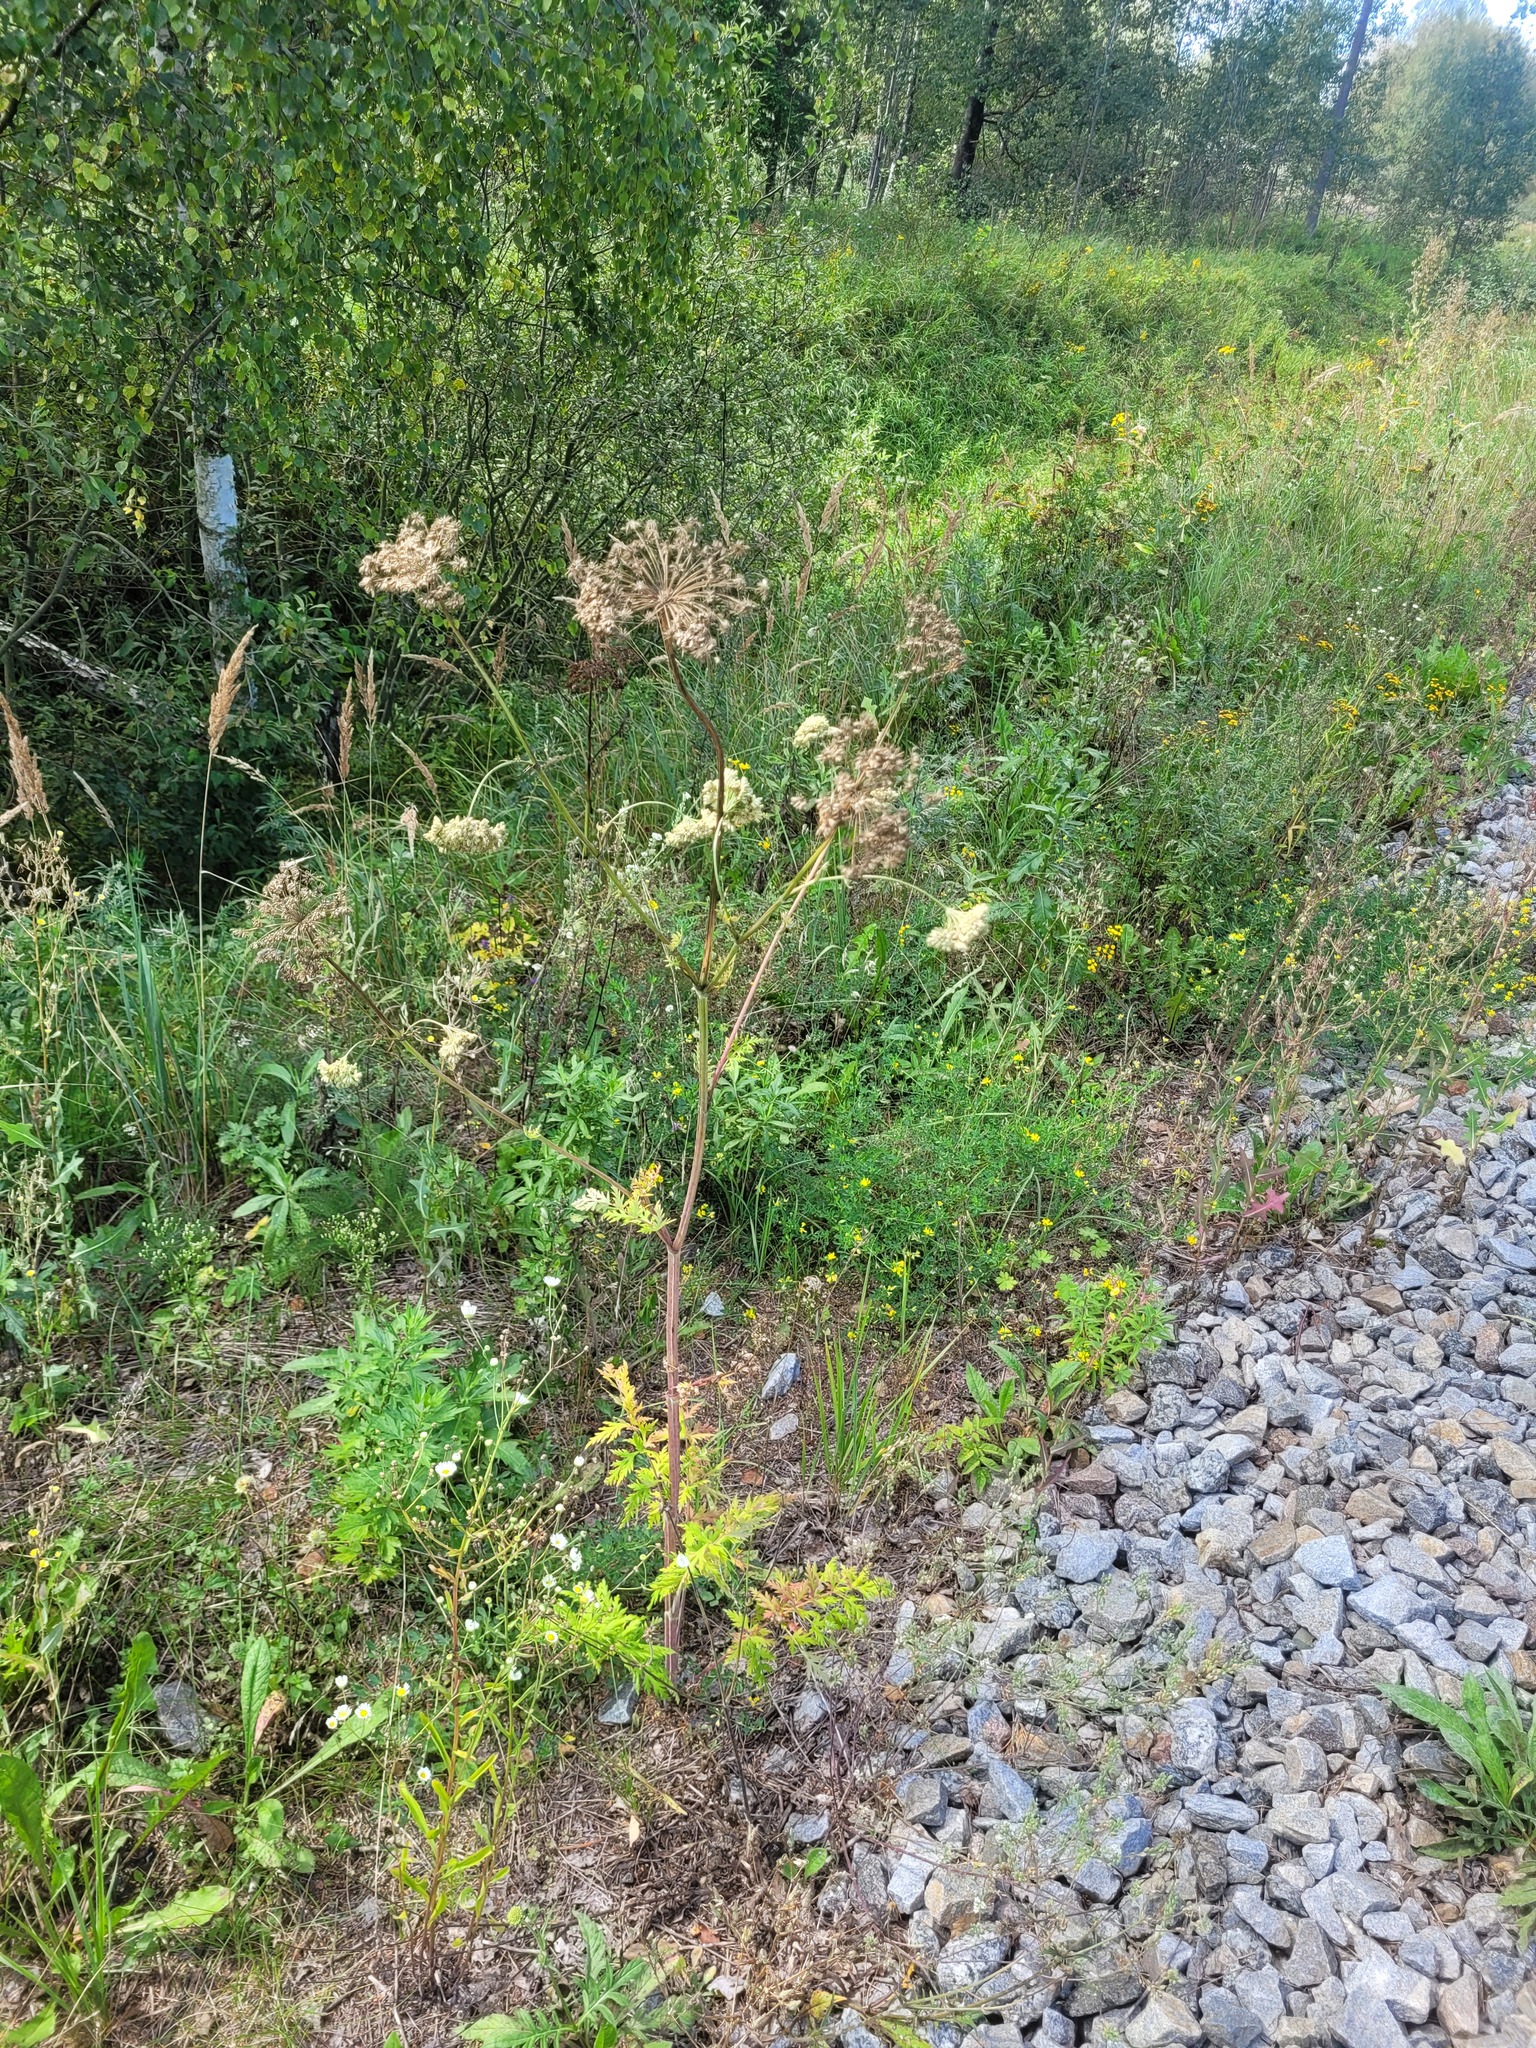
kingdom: Plantae
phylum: Tracheophyta
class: Magnoliopsida
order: Apiales
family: Apiaceae
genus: Seseli
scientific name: Seseli libanotis
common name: Mooncarrot
